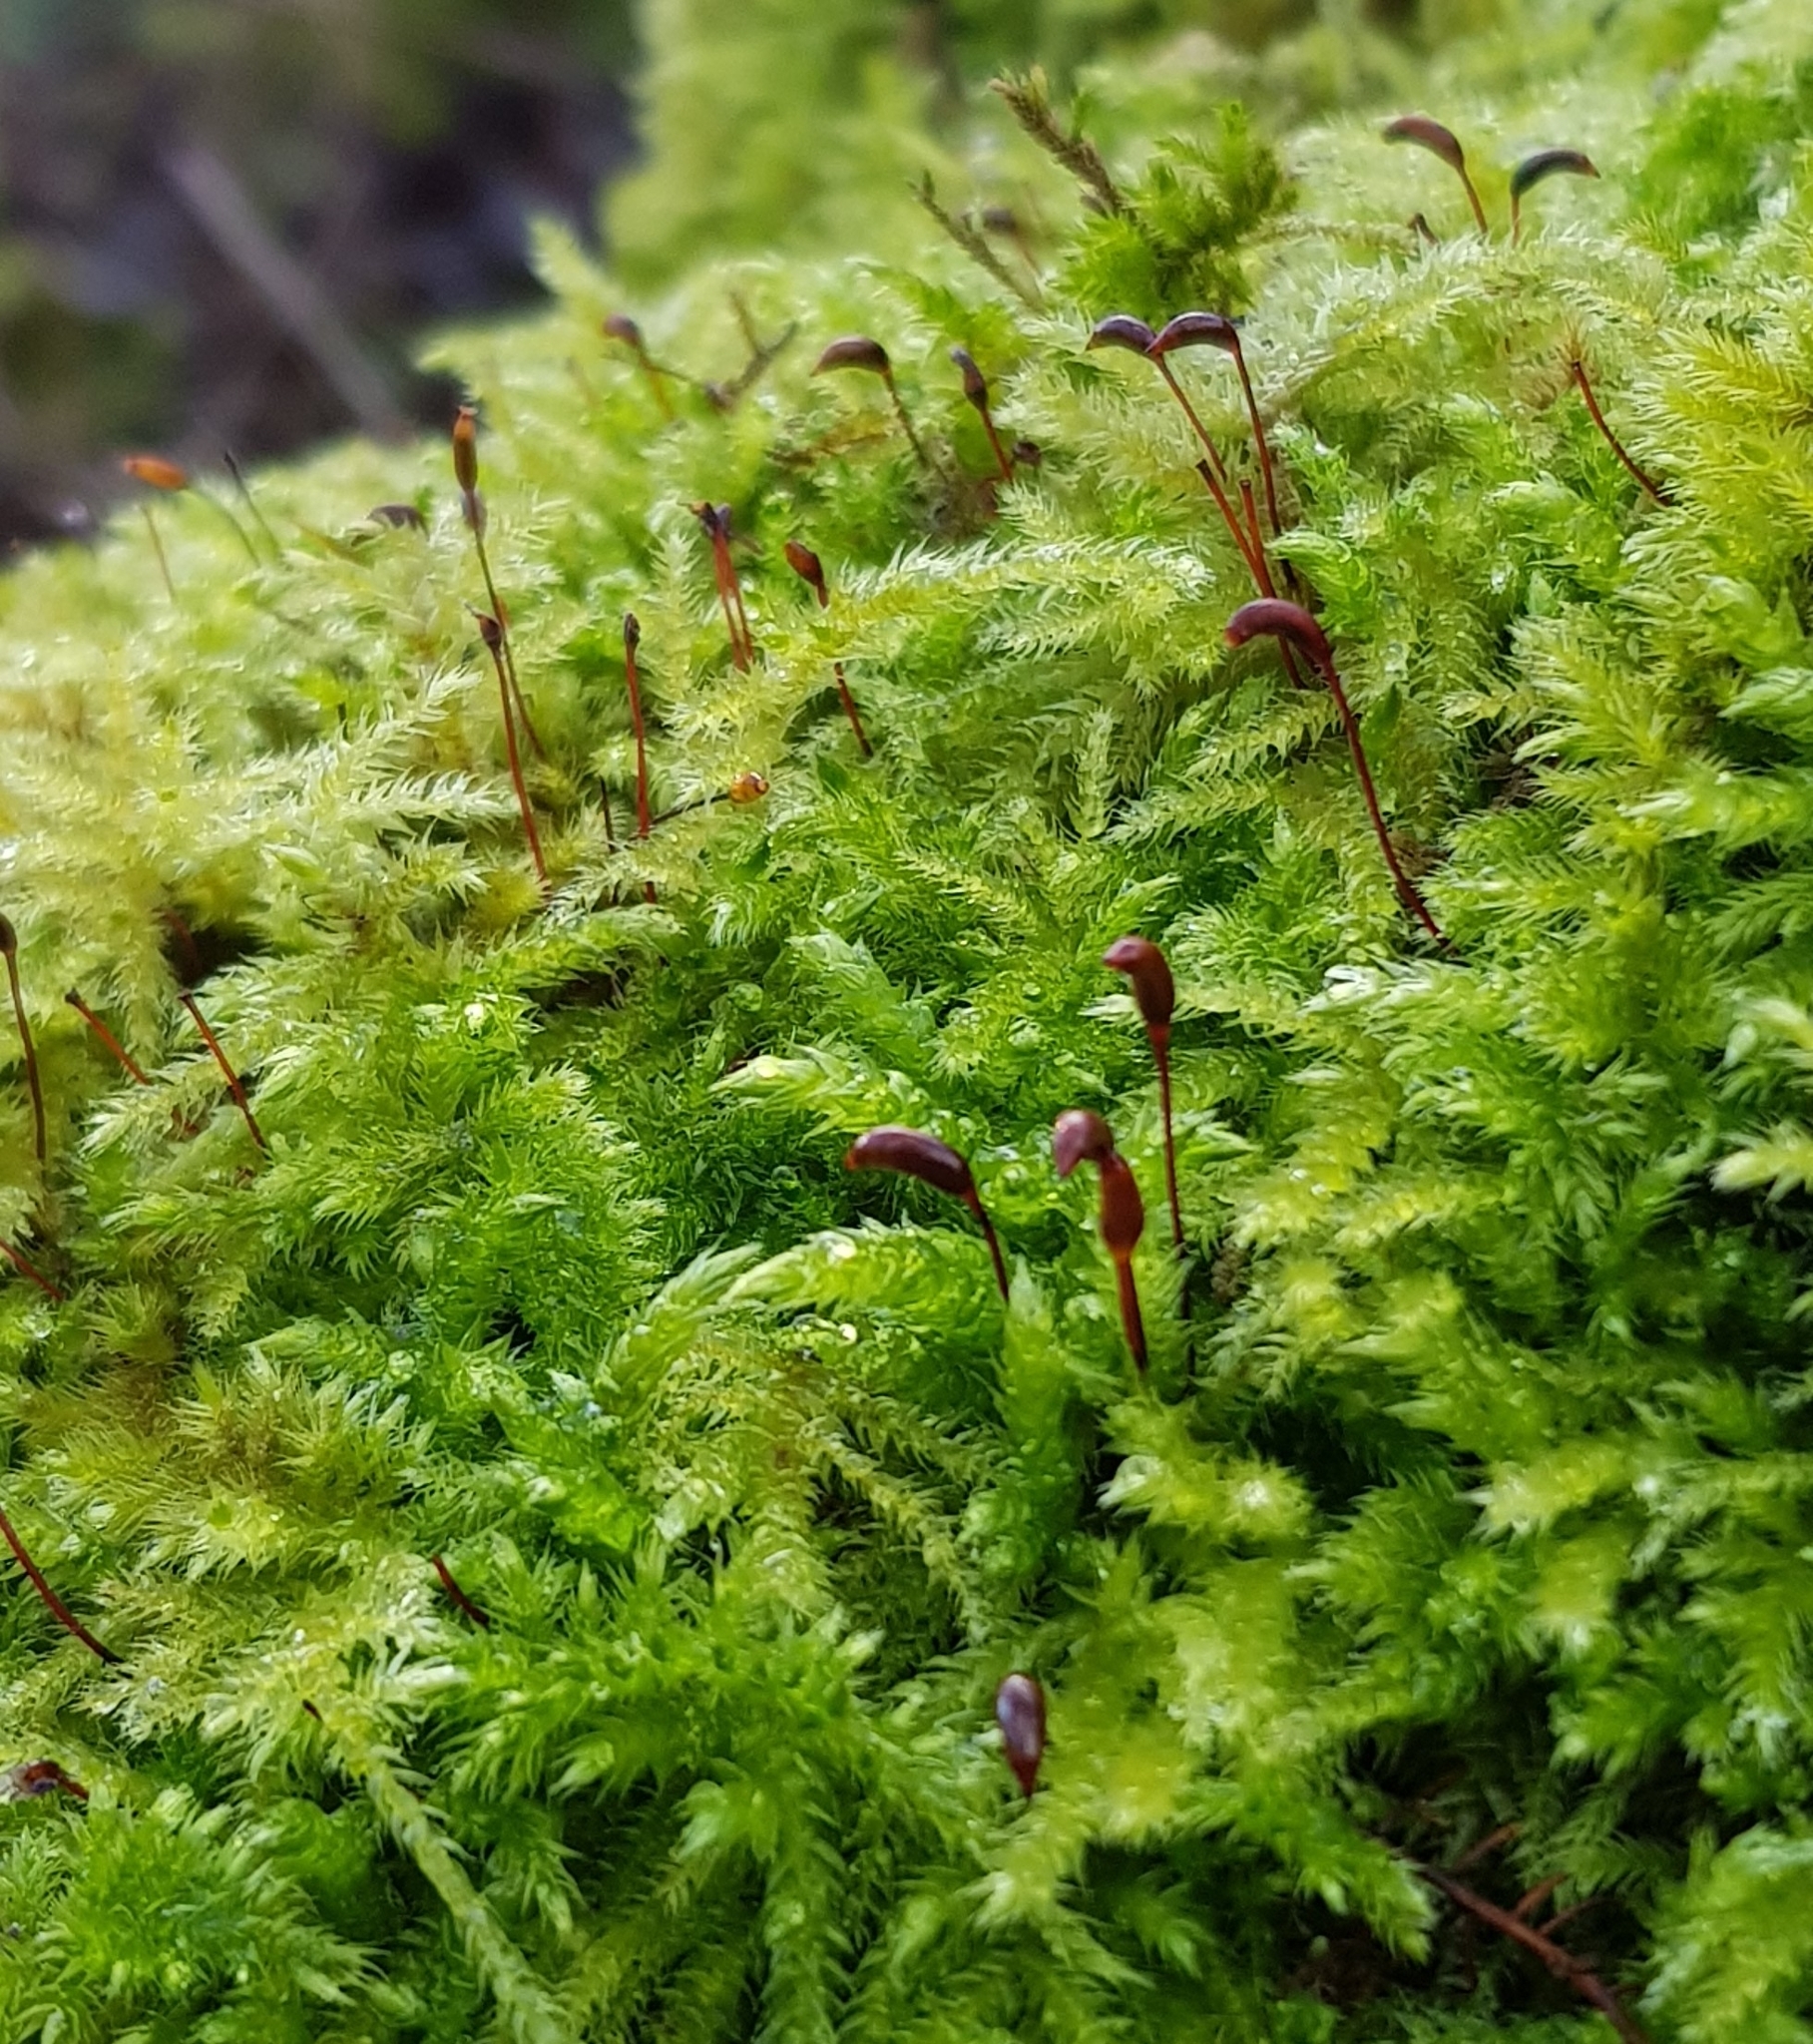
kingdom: Plantae
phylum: Bryophyta
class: Bryopsida
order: Hypnales
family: Brachytheciaceae
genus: Brachythecium
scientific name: Brachythecium rutabulum
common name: Rough-stalked feather-moss
